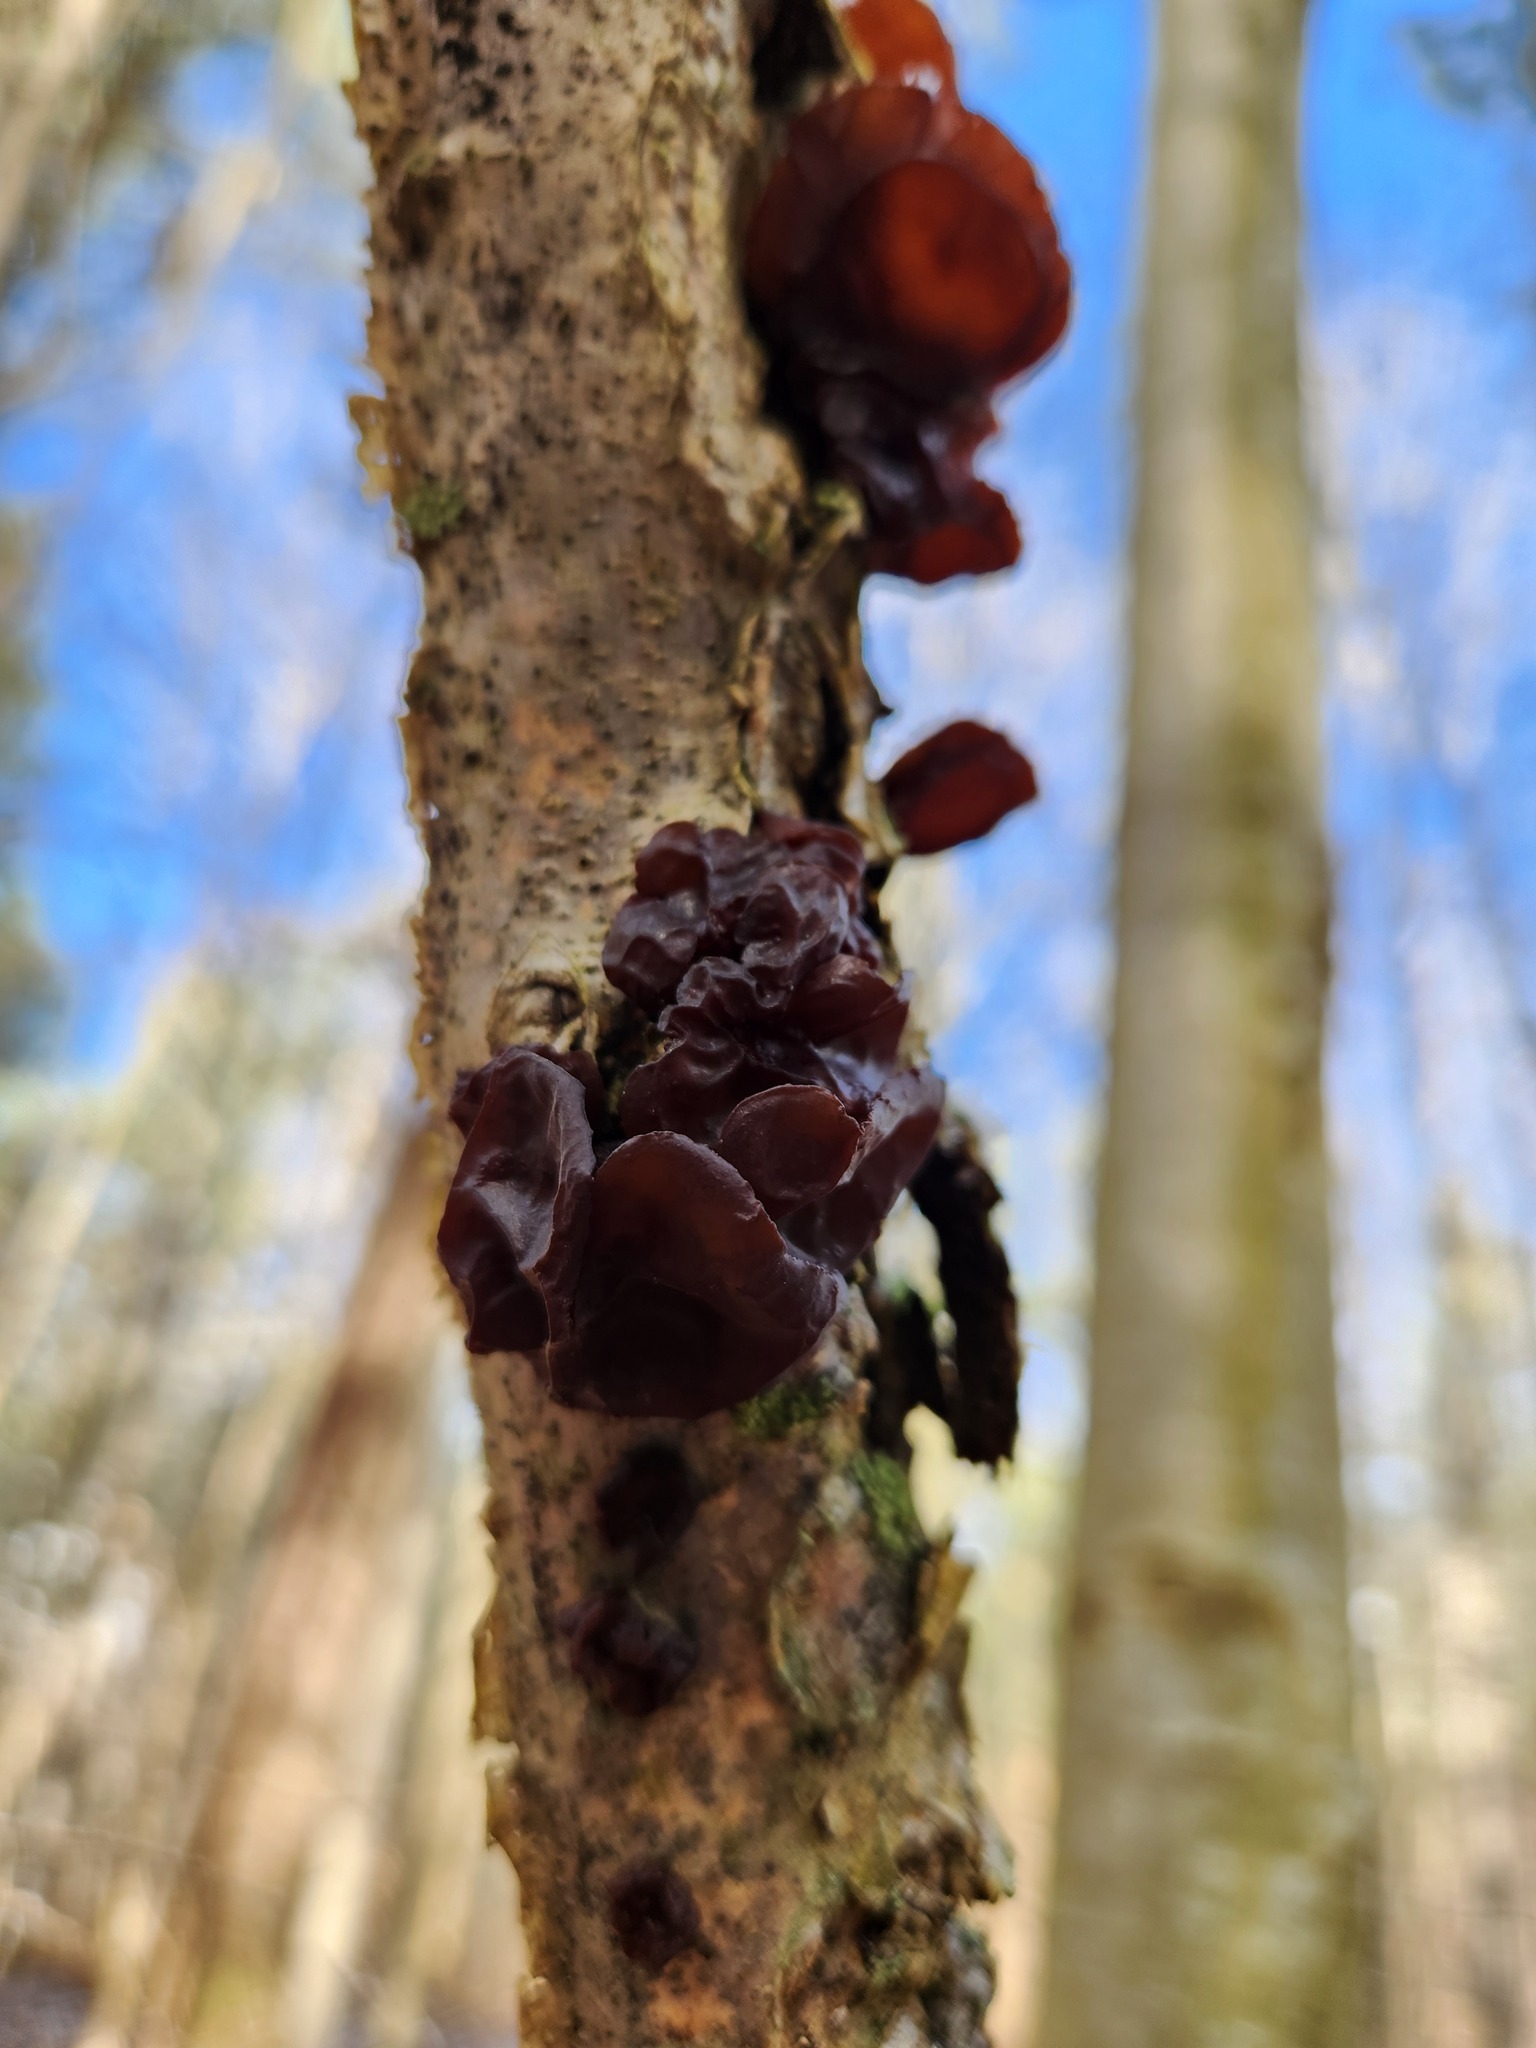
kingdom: Fungi
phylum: Basidiomycota
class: Agaricomycetes
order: Auriculariales
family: Auriculariaceae
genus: Exidia
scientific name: Exidia
